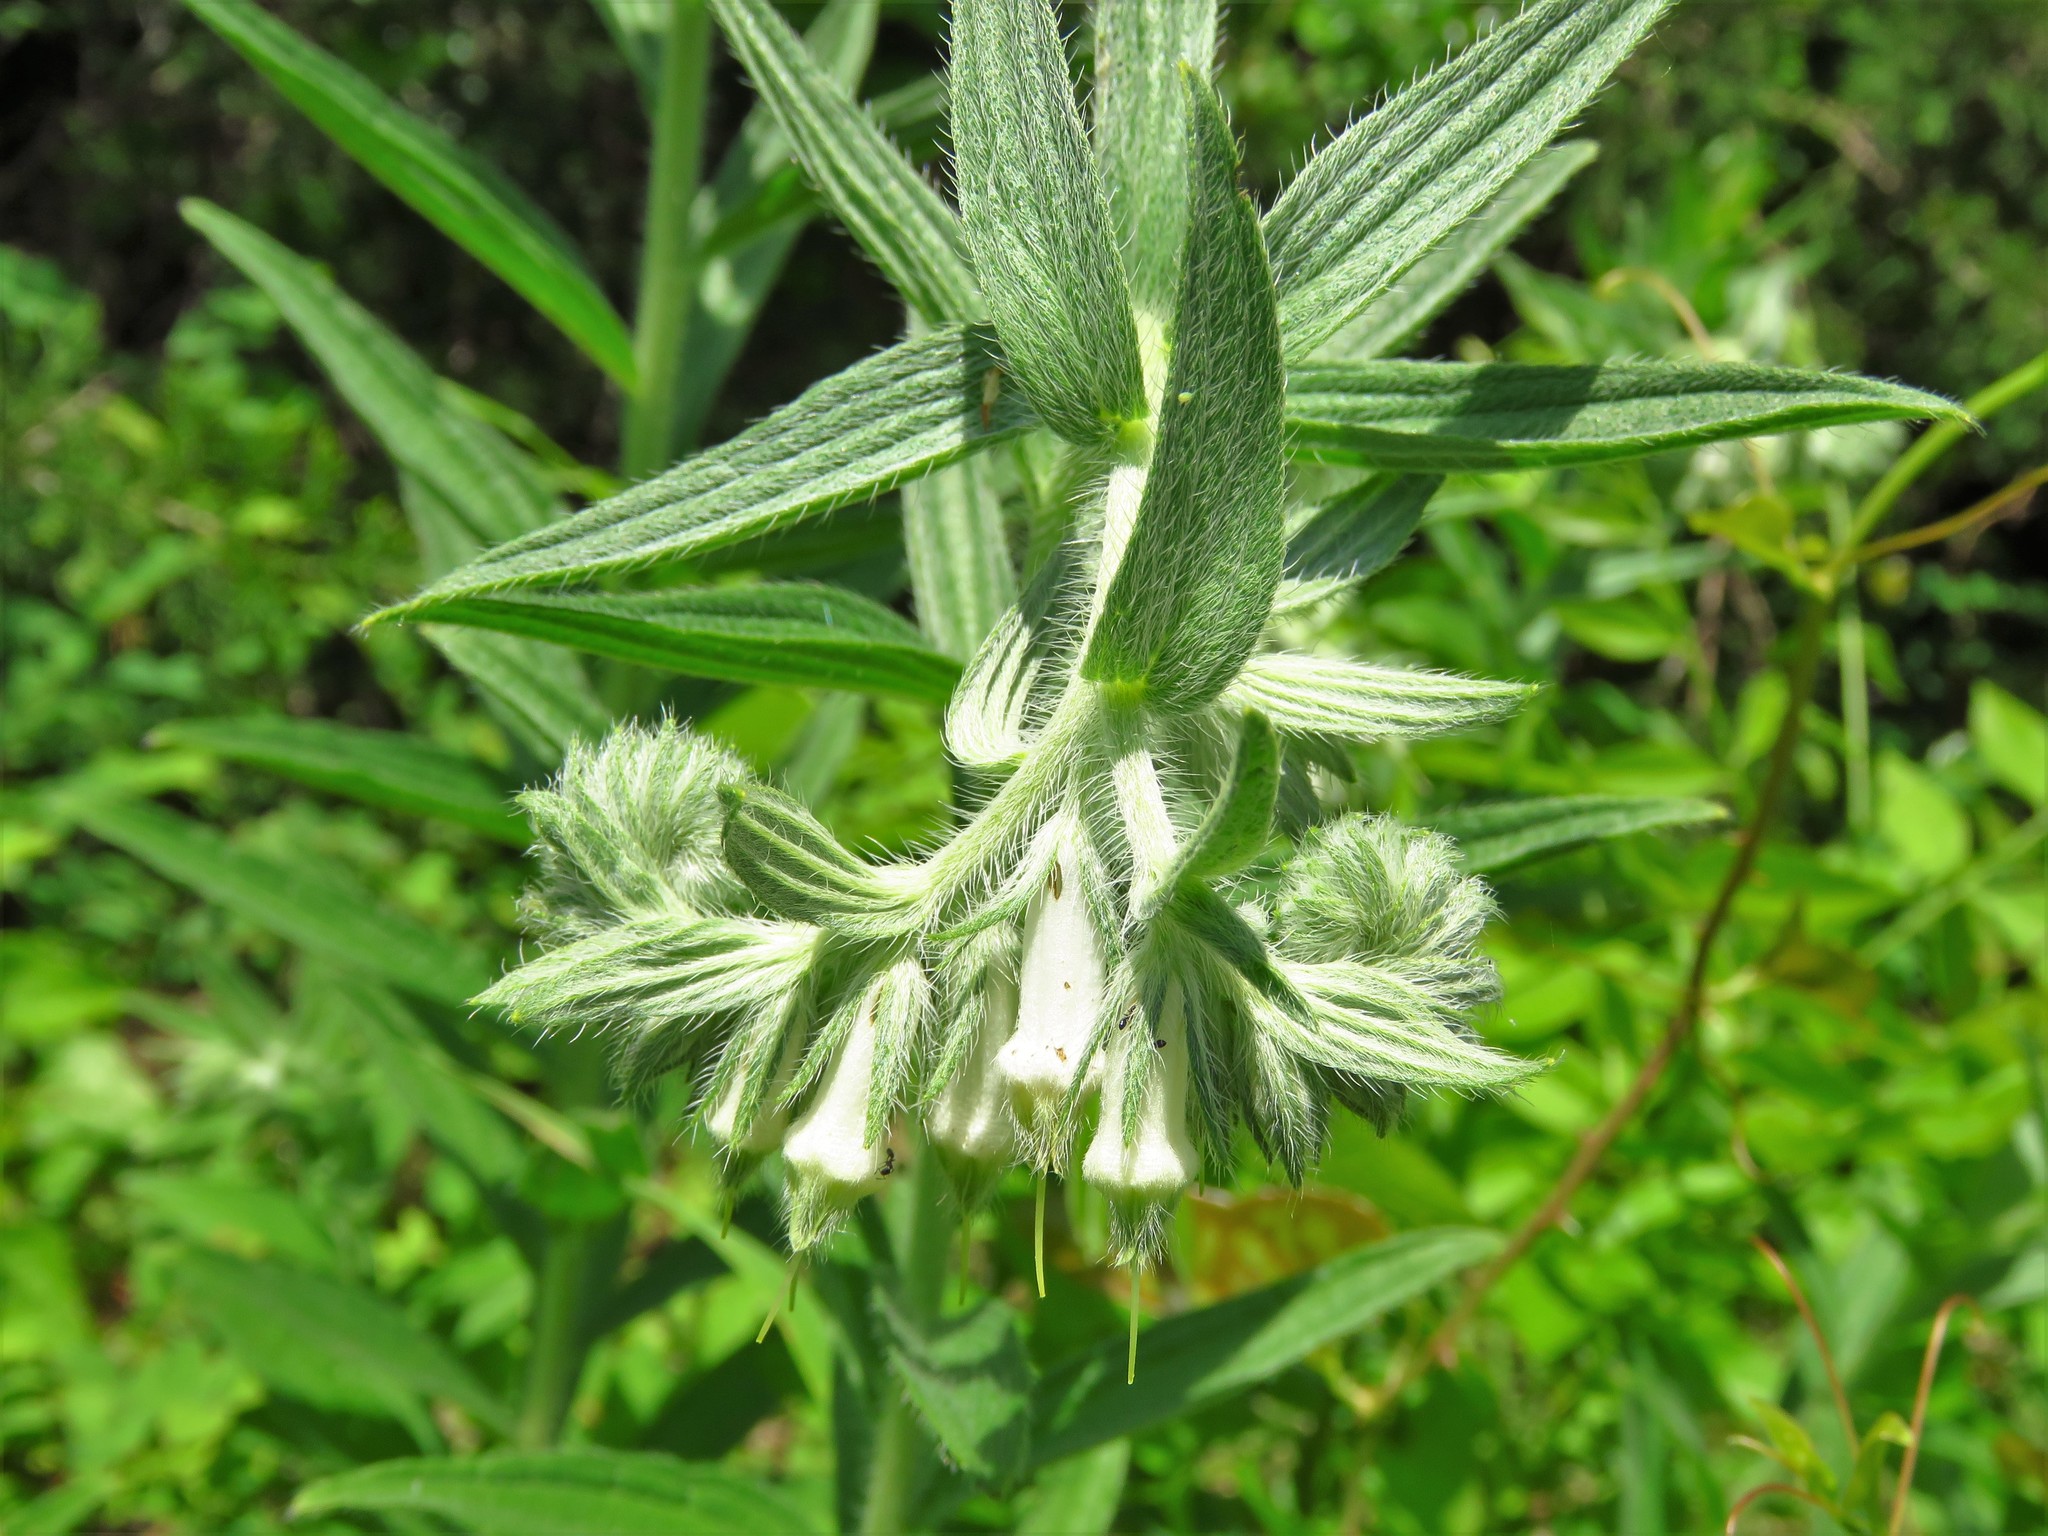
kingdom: Plantae
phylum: Tracheophyta
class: Magnoliopsida
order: Boraginales
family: Boraginaceae
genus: Lithospermum
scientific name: Lithospermum caroliniense
